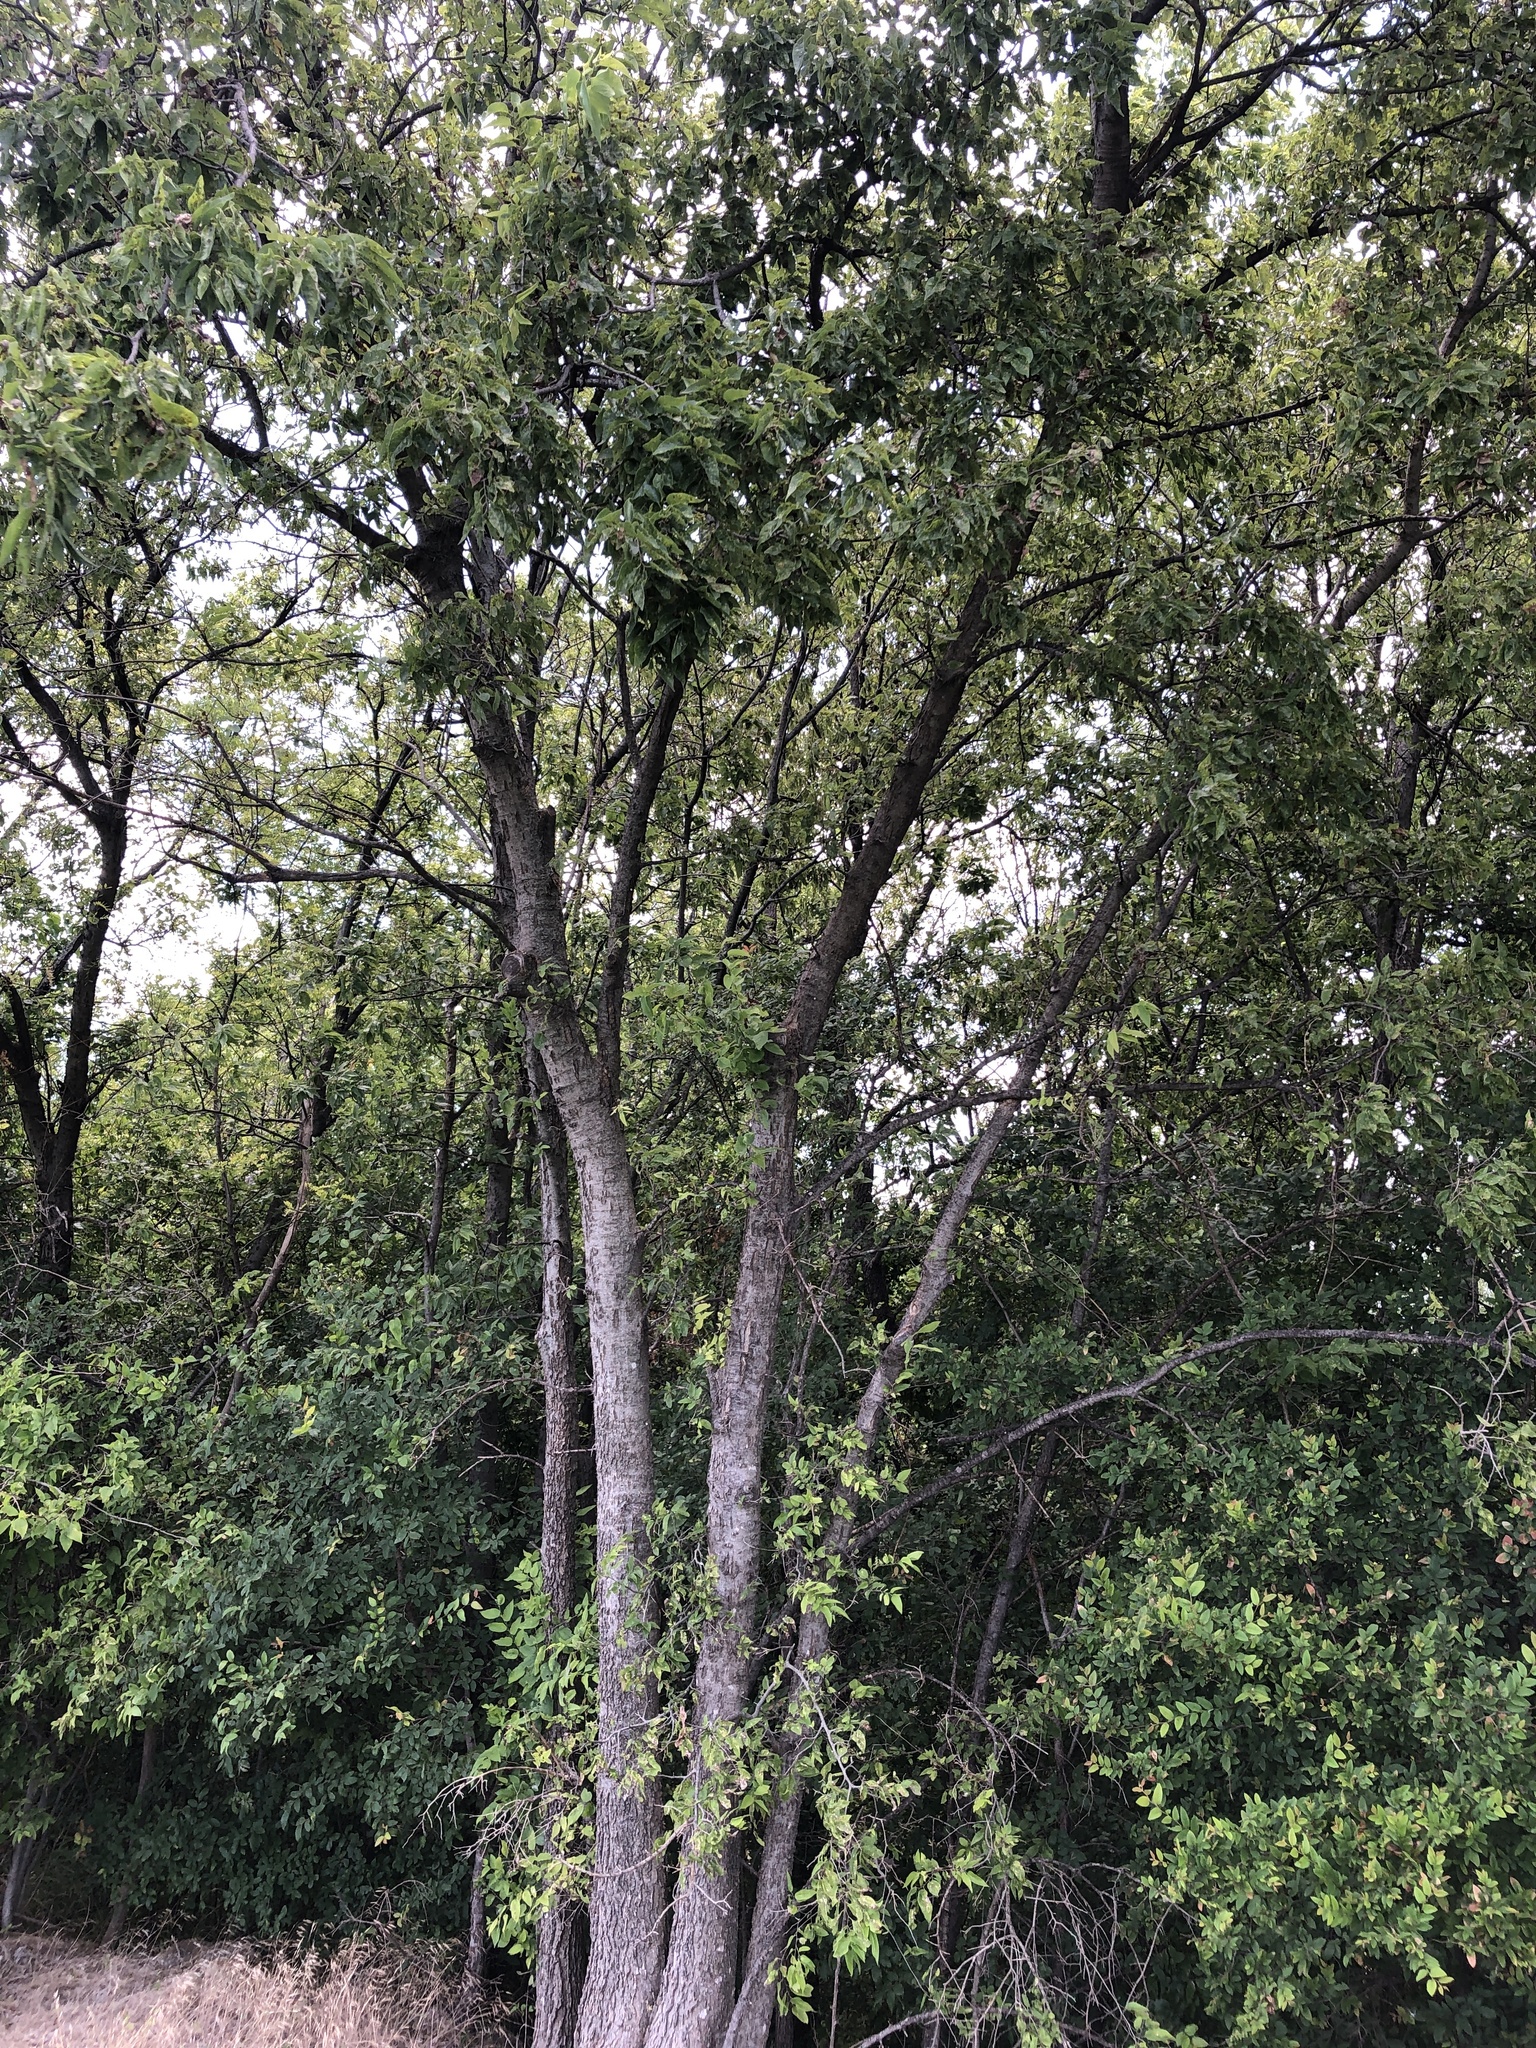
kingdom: Plantae
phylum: Tracheophyta
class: Magnoliopsida
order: Rosales
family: Cannabaceae
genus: Celtis
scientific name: Celtis laevigata
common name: Sugarberry
